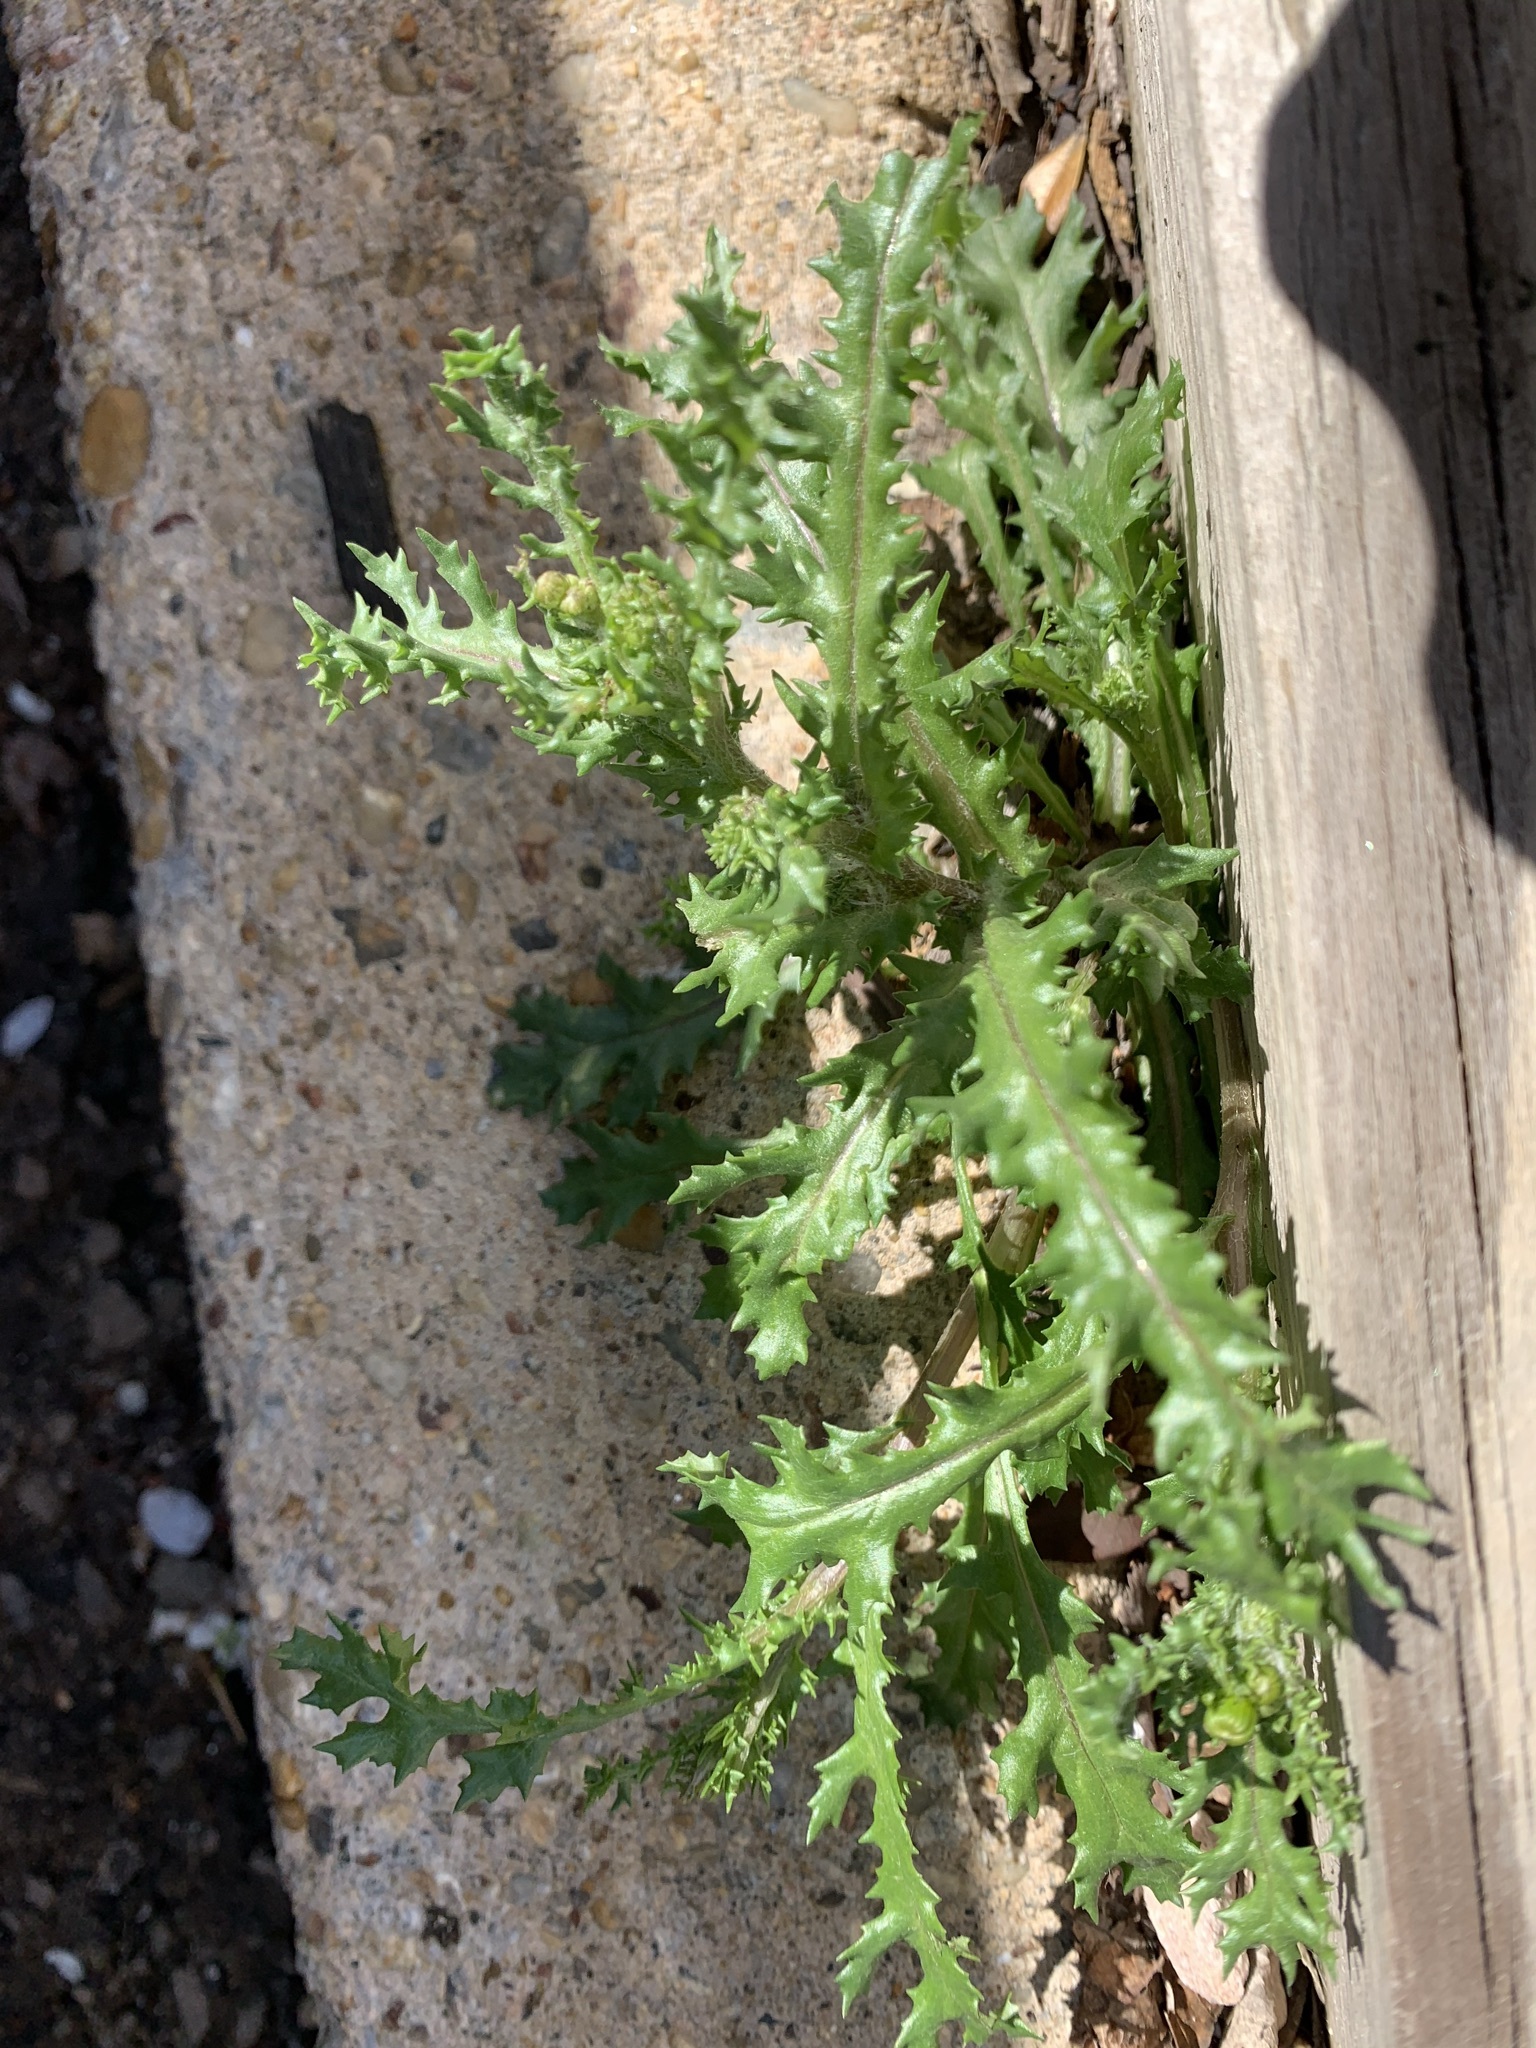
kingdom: Plantae
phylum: Tracheophyta
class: Magnoliopsida
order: Asterales
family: Asteraceae
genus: Senecio
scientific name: Senecio vulgaris
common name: Old-man-in-the-spring
